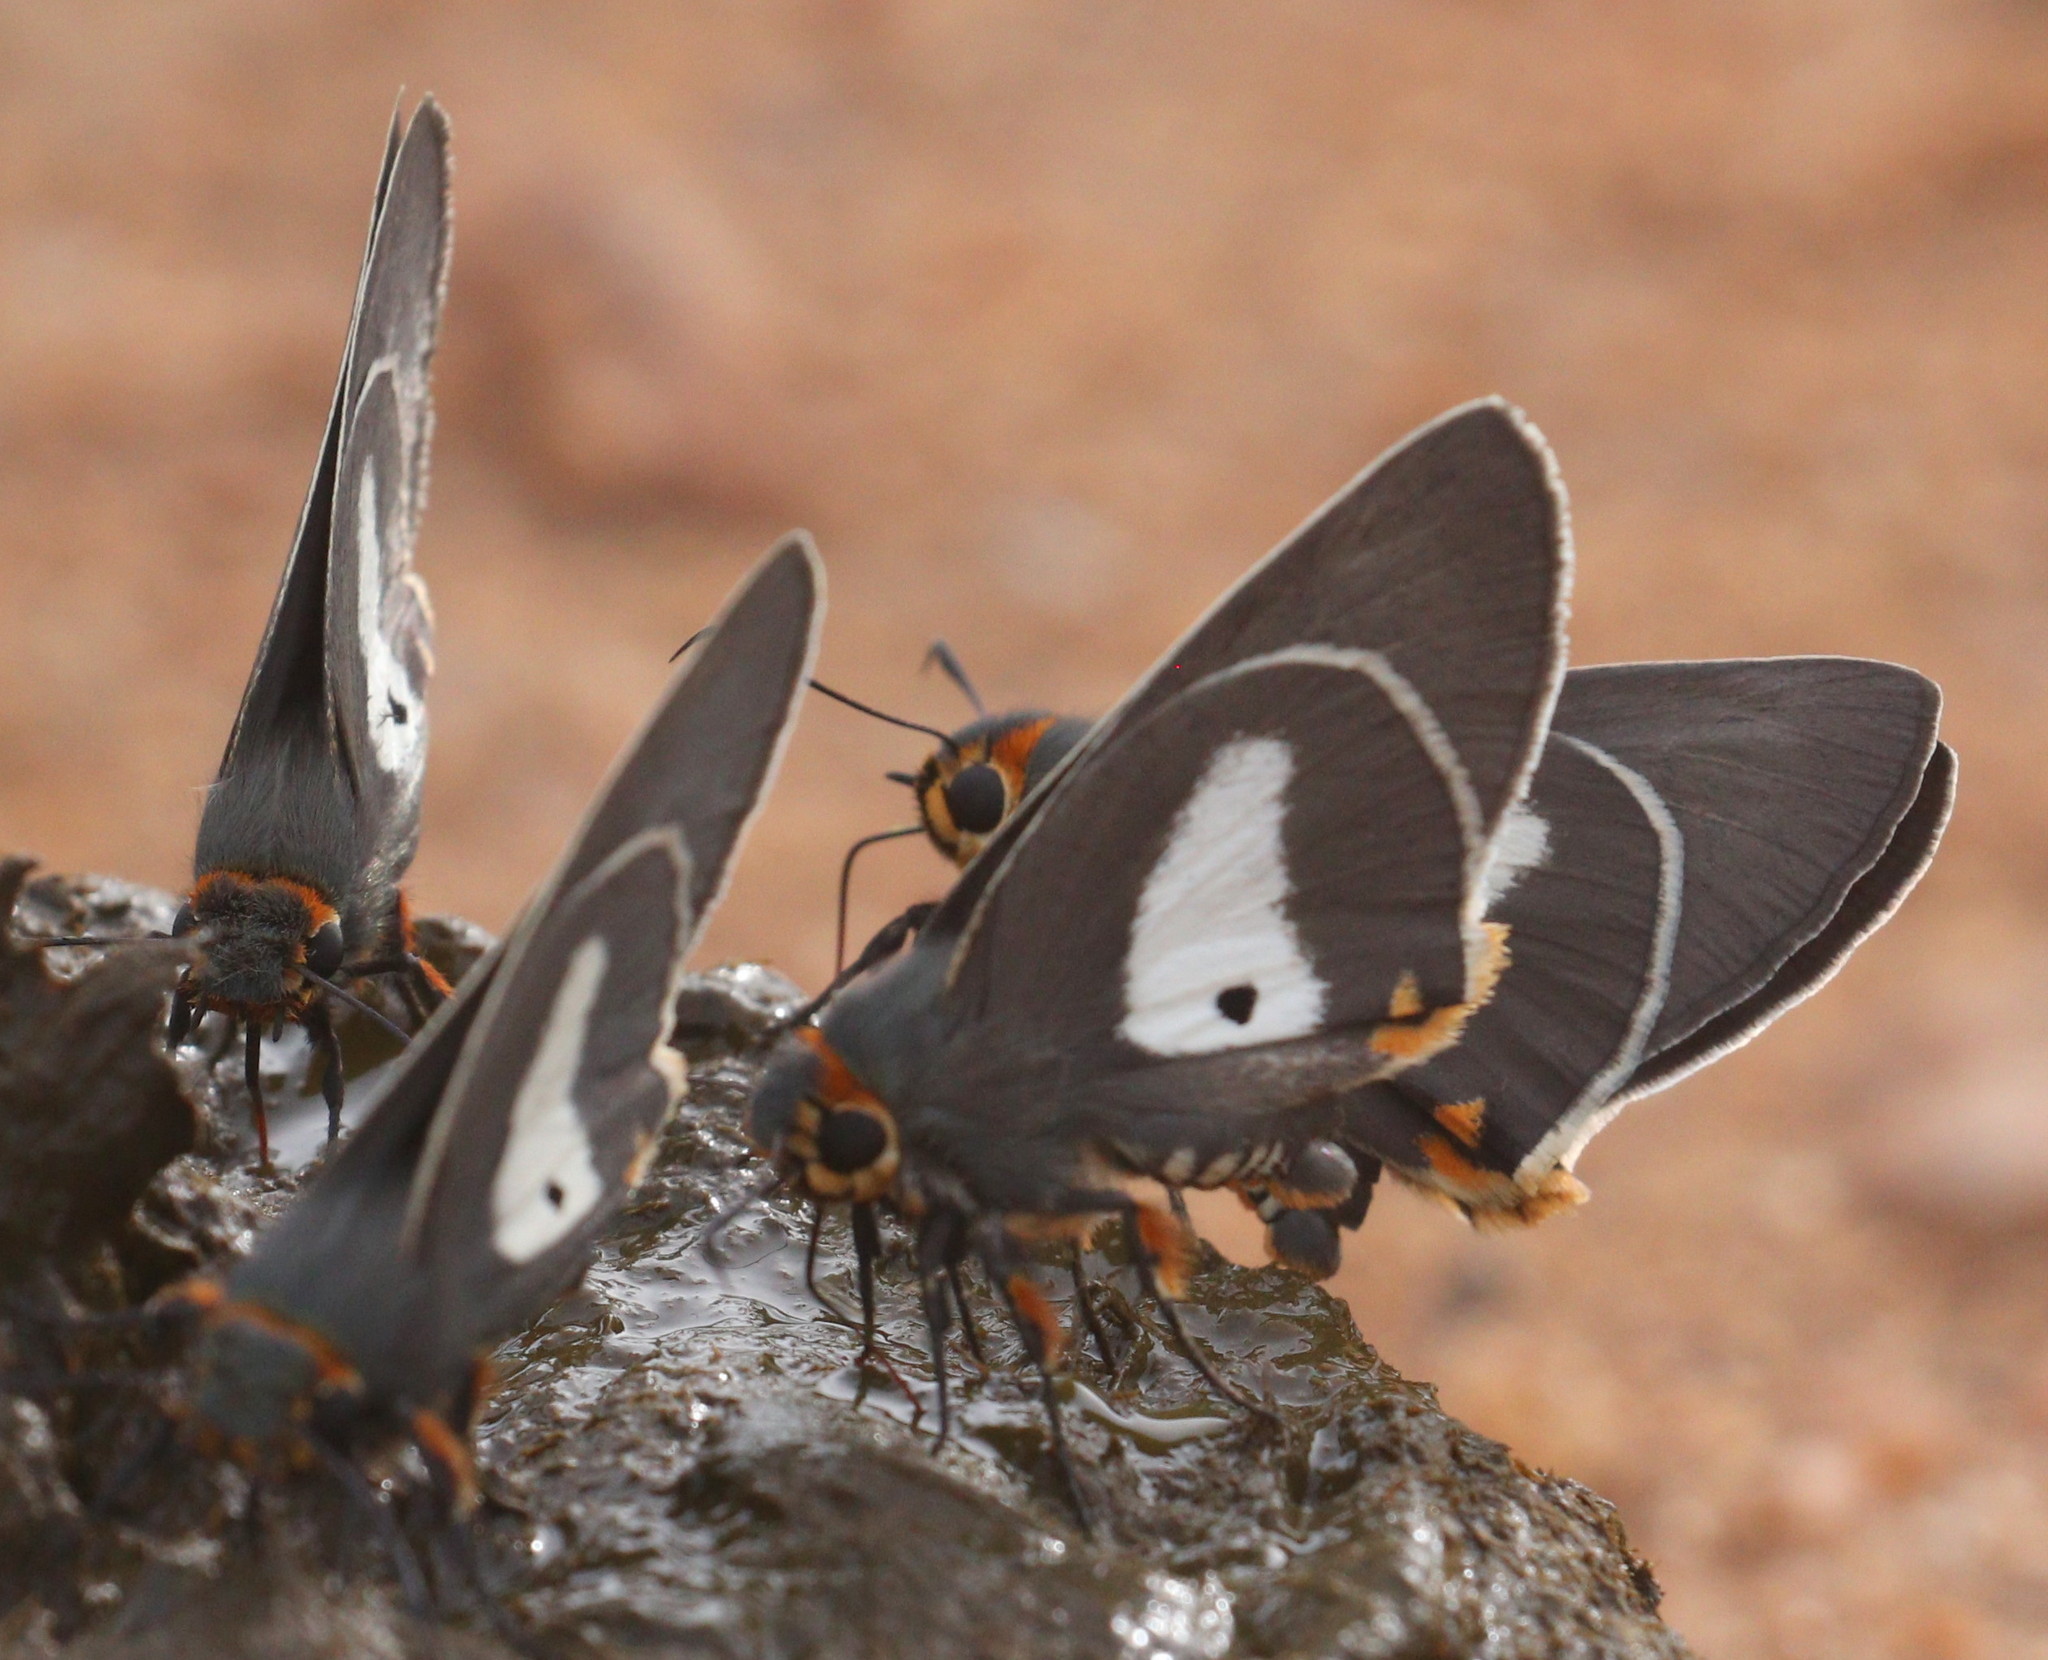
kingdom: Animalia
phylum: Arthropoda
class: Insecta
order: Lepidoptera
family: Hesperiidae
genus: Coeliades
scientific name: Coeliades anchises
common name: One-pip policeman
